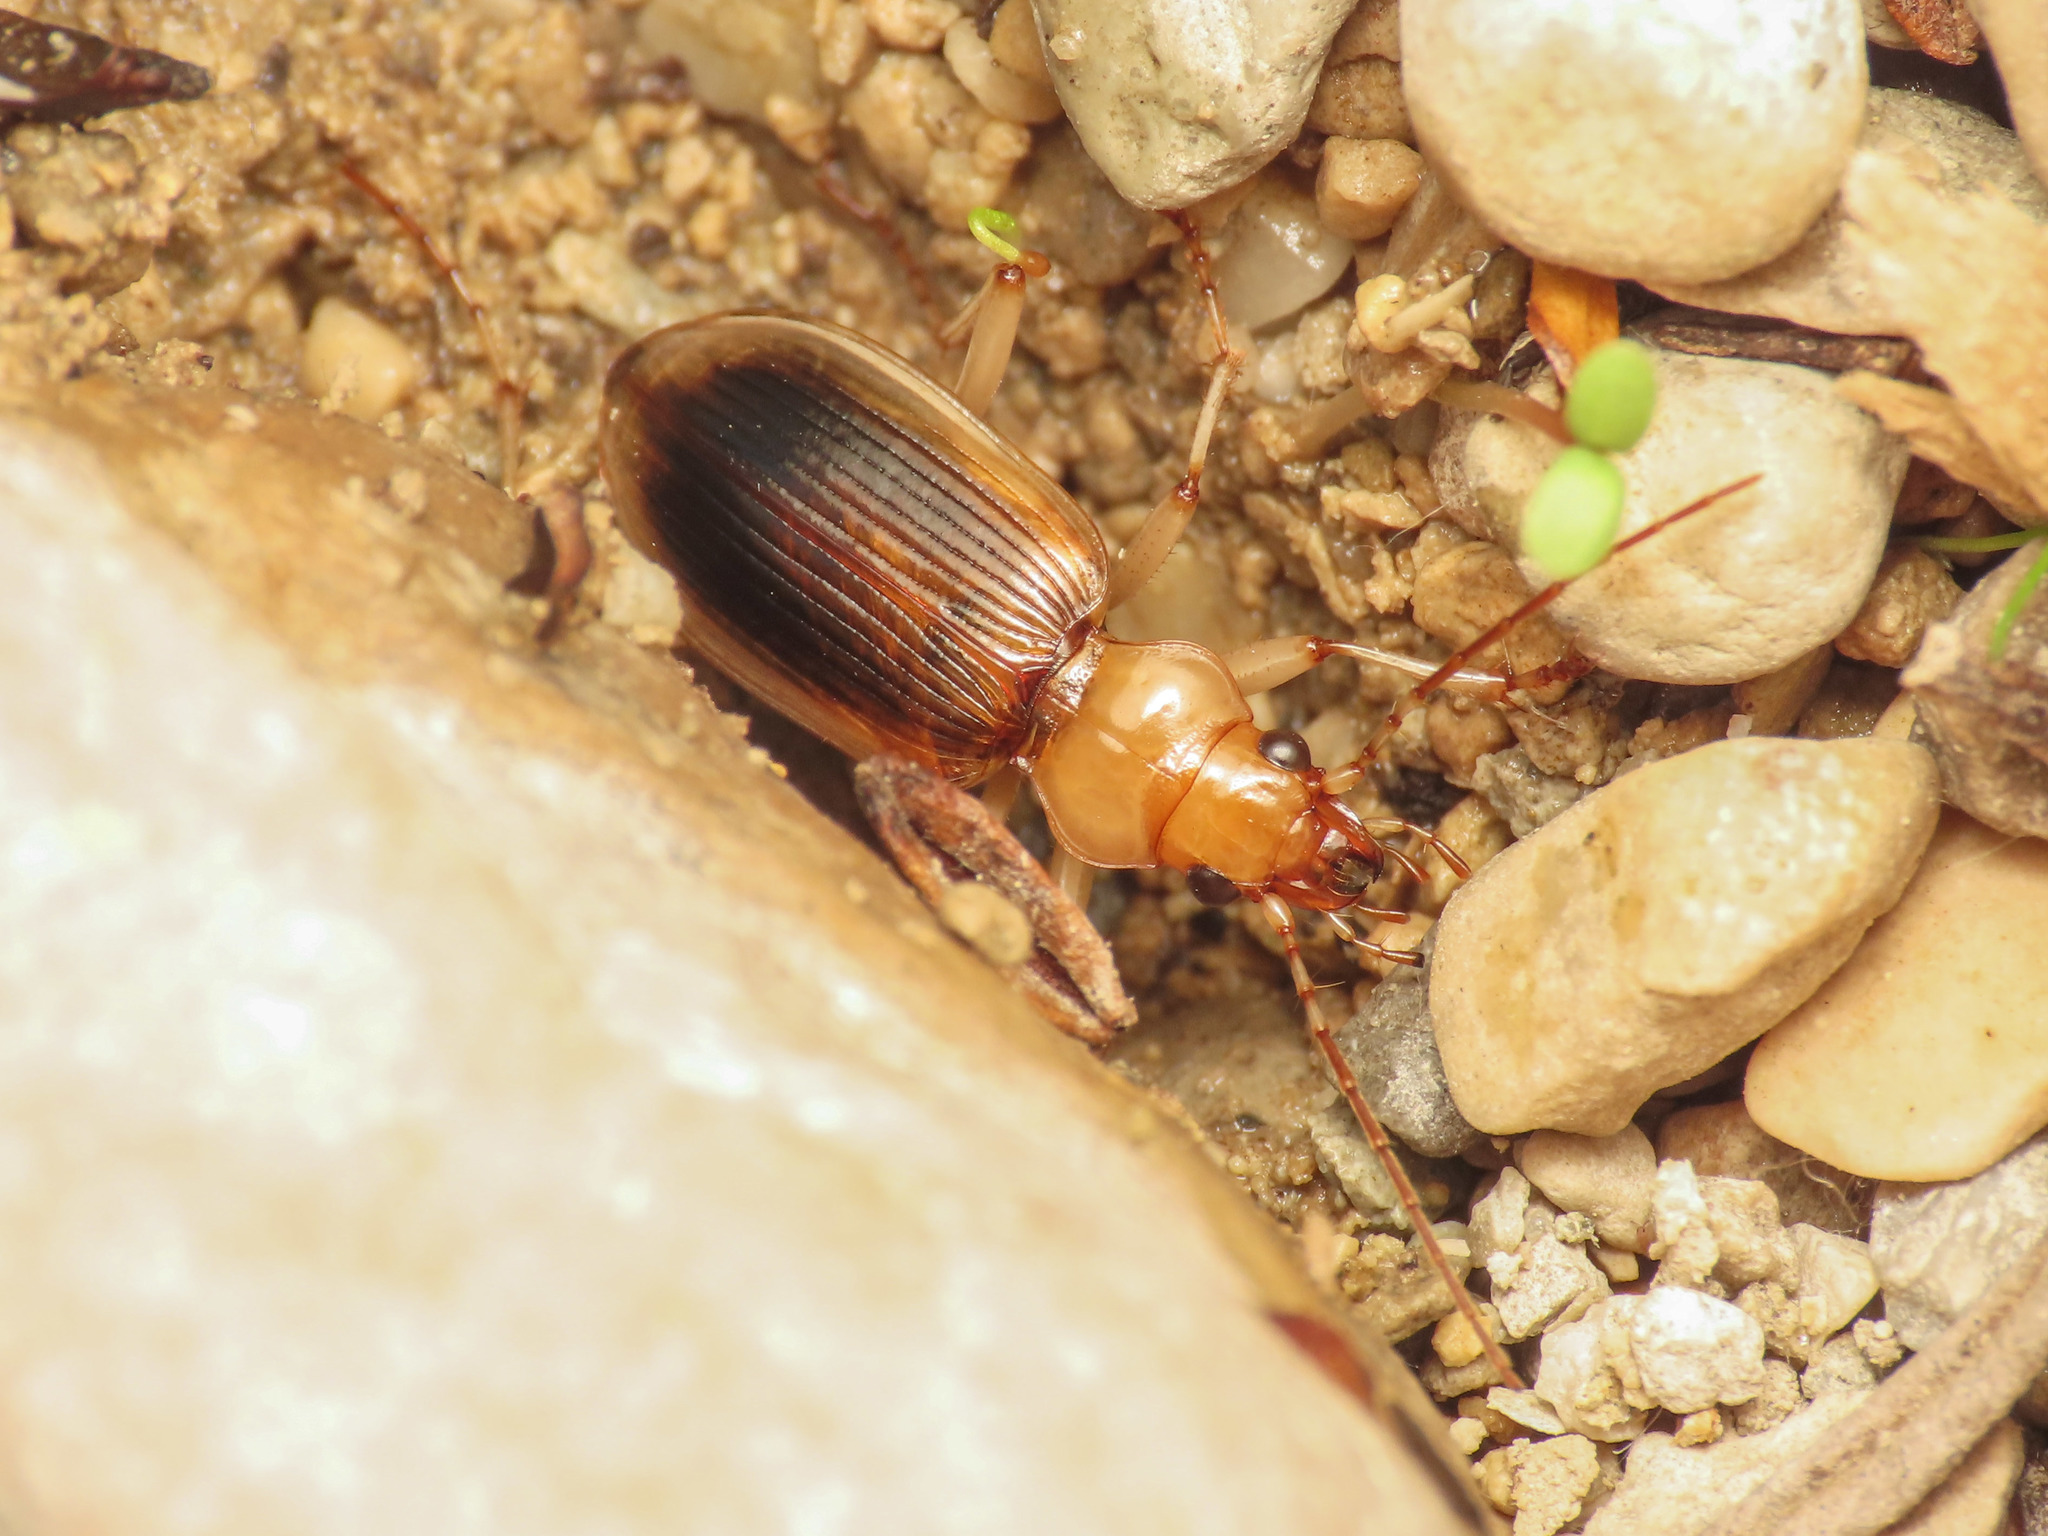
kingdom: Animalia
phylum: Arthropoda
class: Insecta
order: Coleoptera
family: Carabidae
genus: Nebria
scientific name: Nebria psammodes
